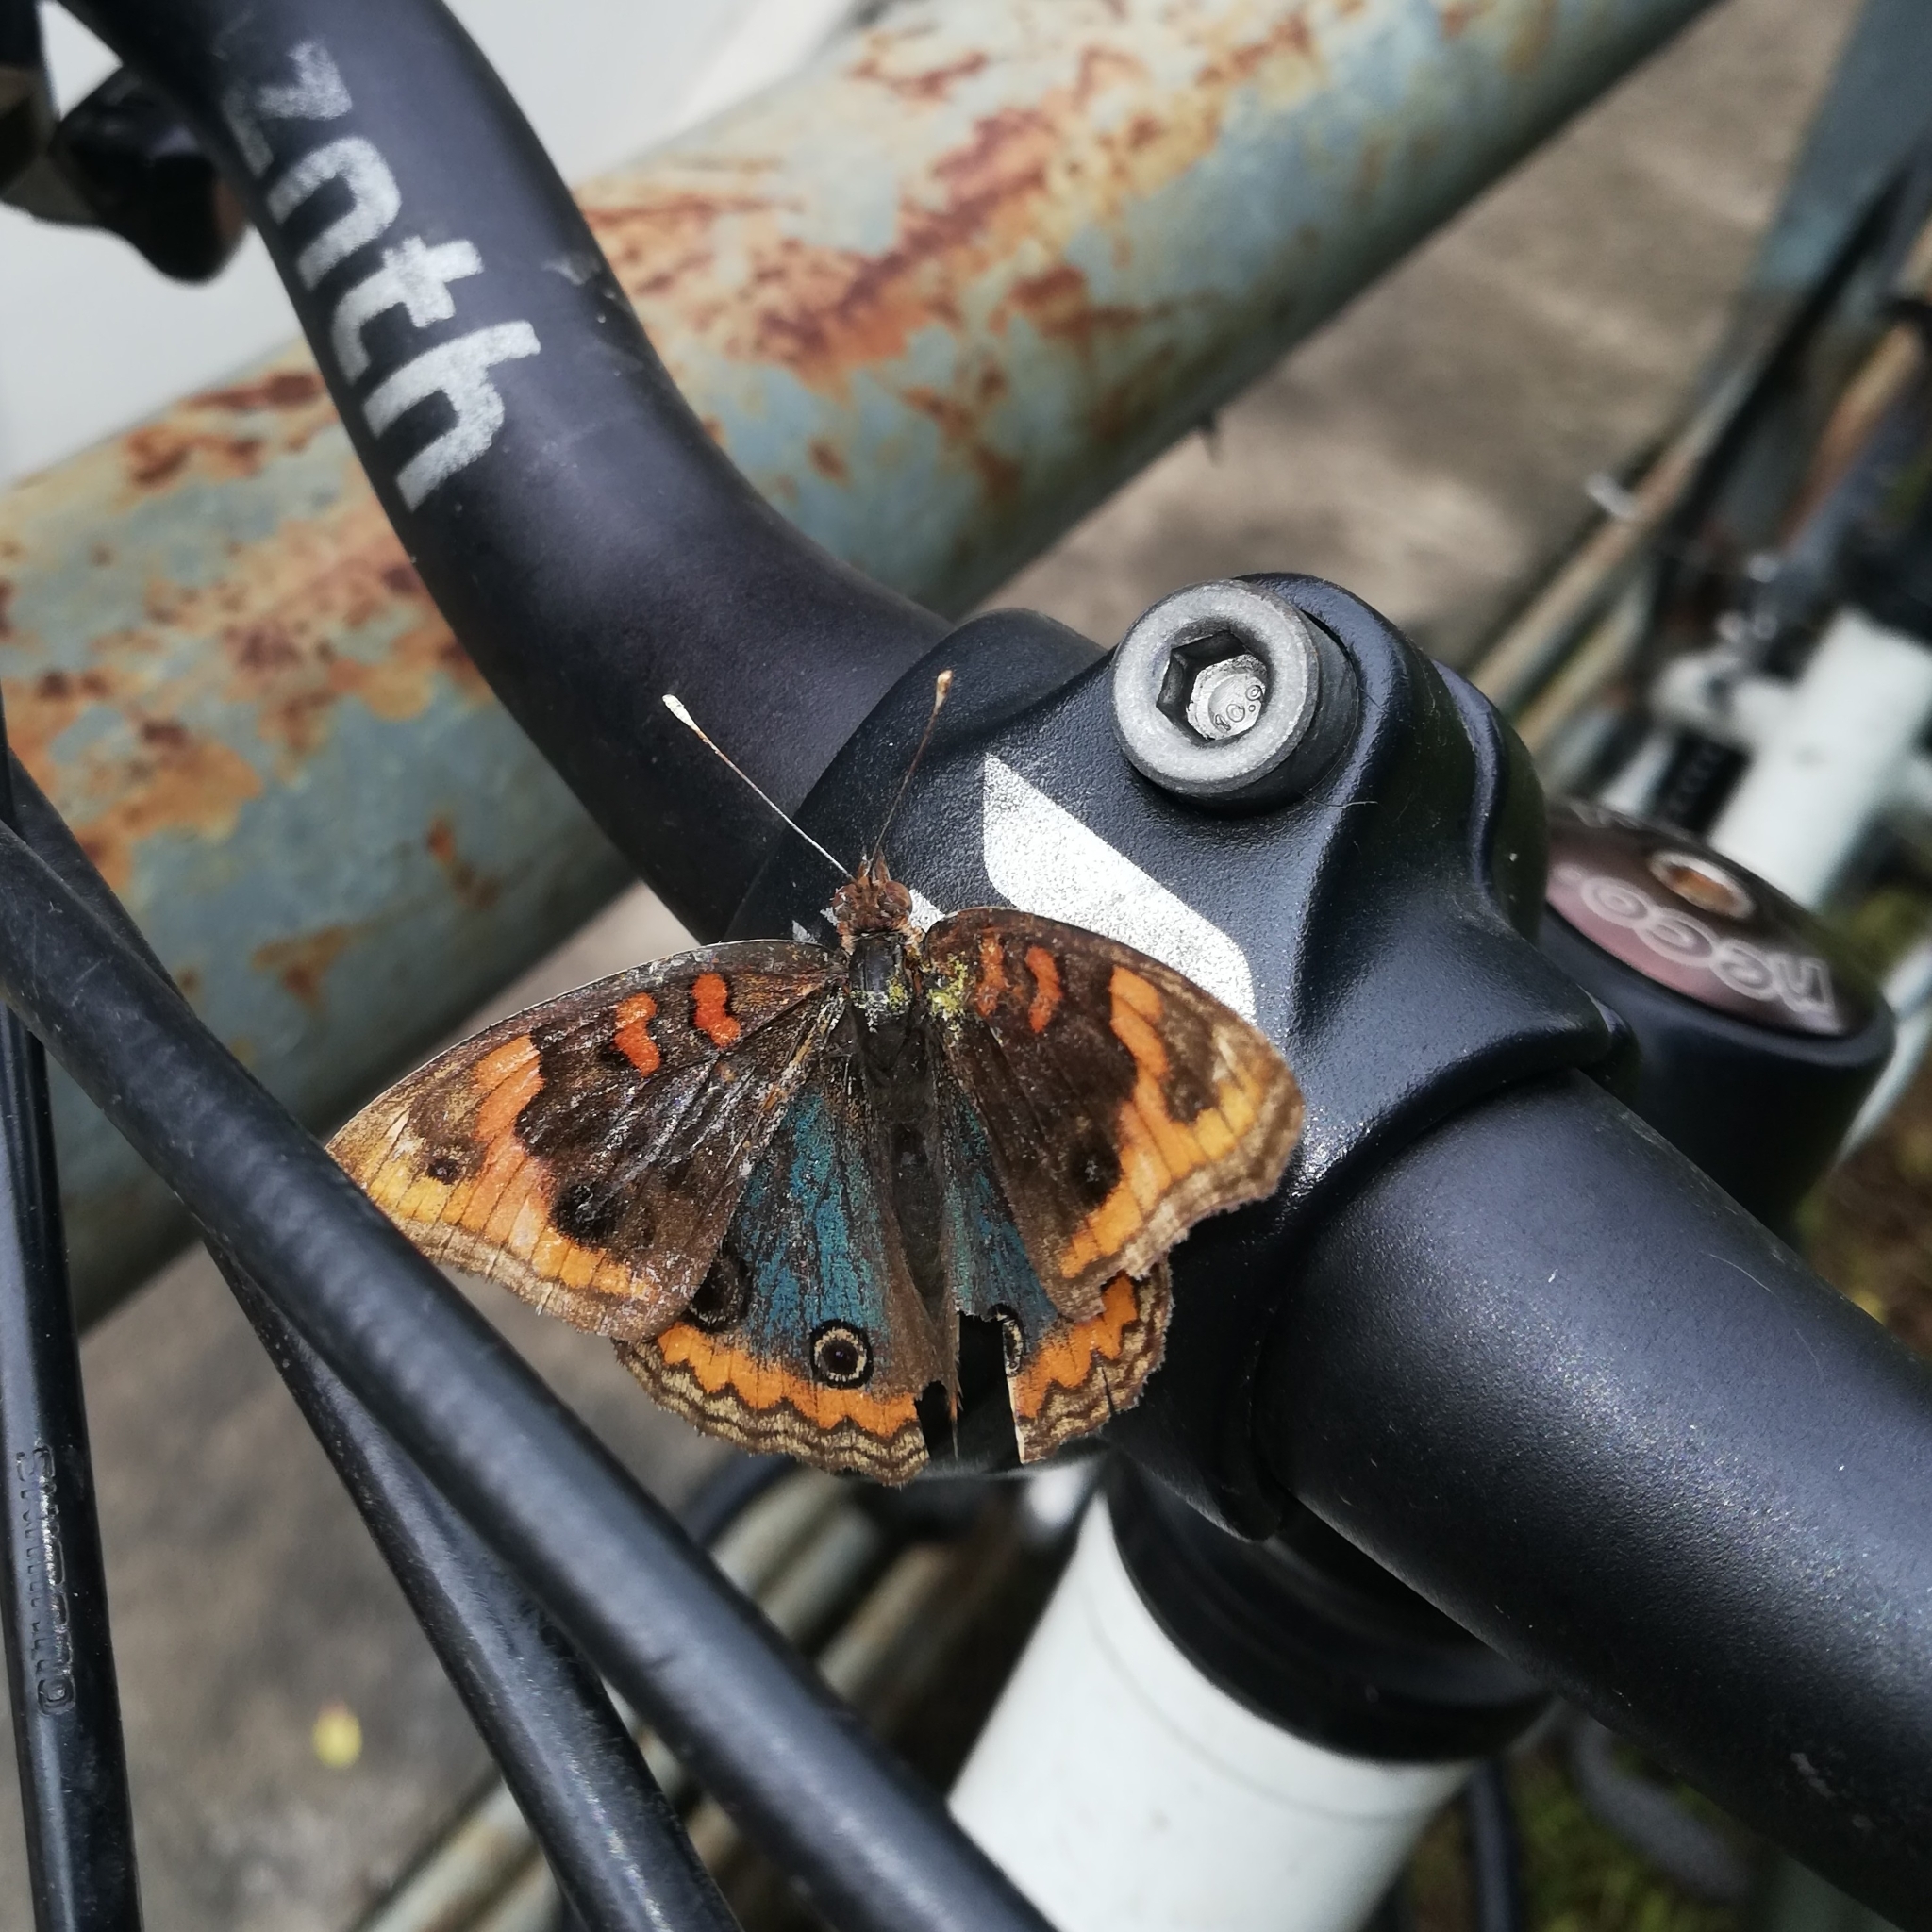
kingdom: Animalia
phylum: Arthropoda
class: Insecta
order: Lepidoptera
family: Nymphalidae
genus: Junonia
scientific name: Junonia lavinia
